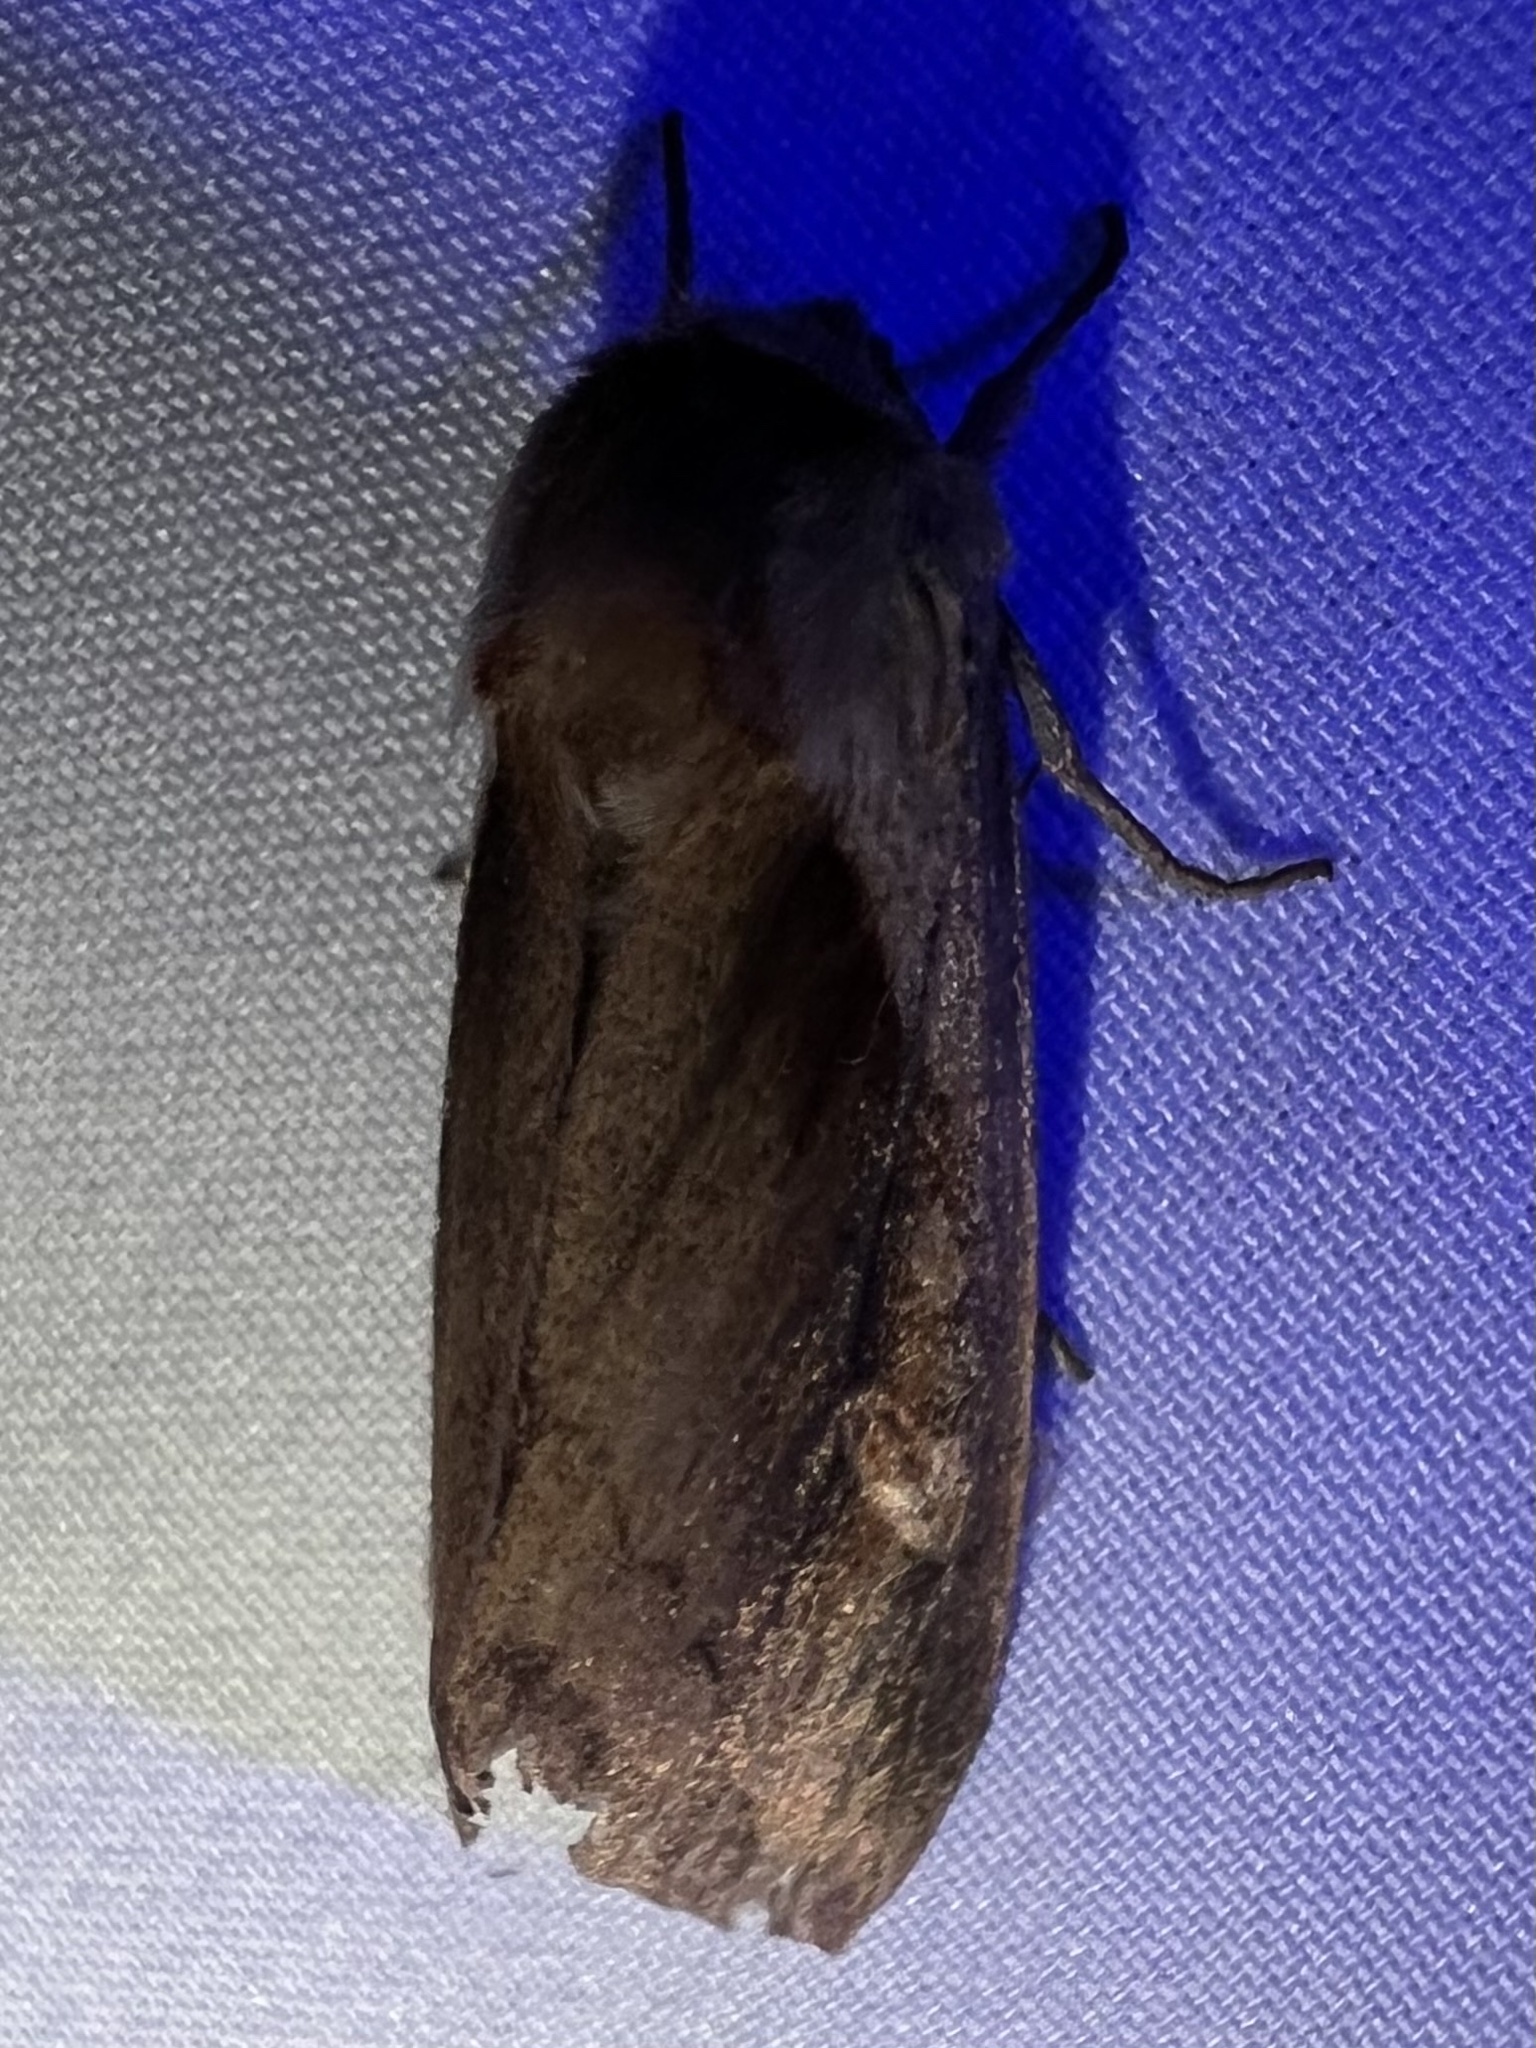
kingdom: Animalia
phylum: Arthropoda
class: Insecta
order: Lepidoptera
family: Noctuidae
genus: Bellura
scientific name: Bellura obliqua
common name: Cattail borer moth
